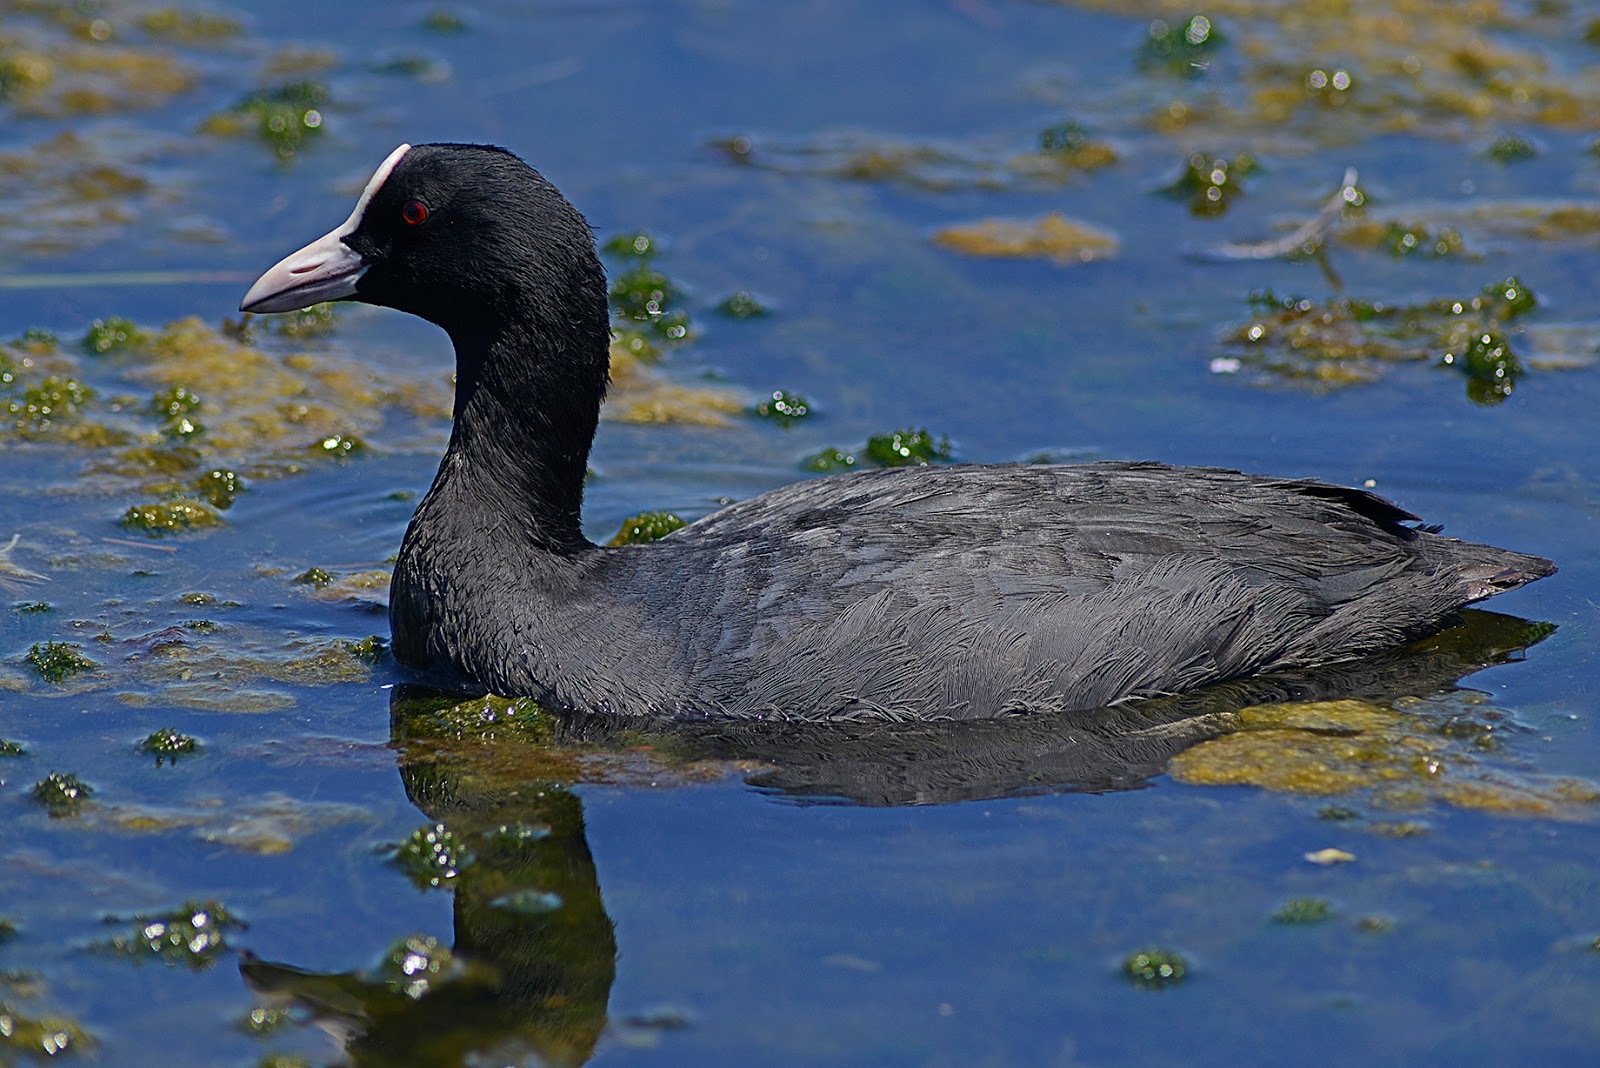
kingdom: Animalia
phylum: Chordata
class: Aves
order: Gruiformes
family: Rallidae
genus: Fulica
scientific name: Fulica atra
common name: Eurasian coot
